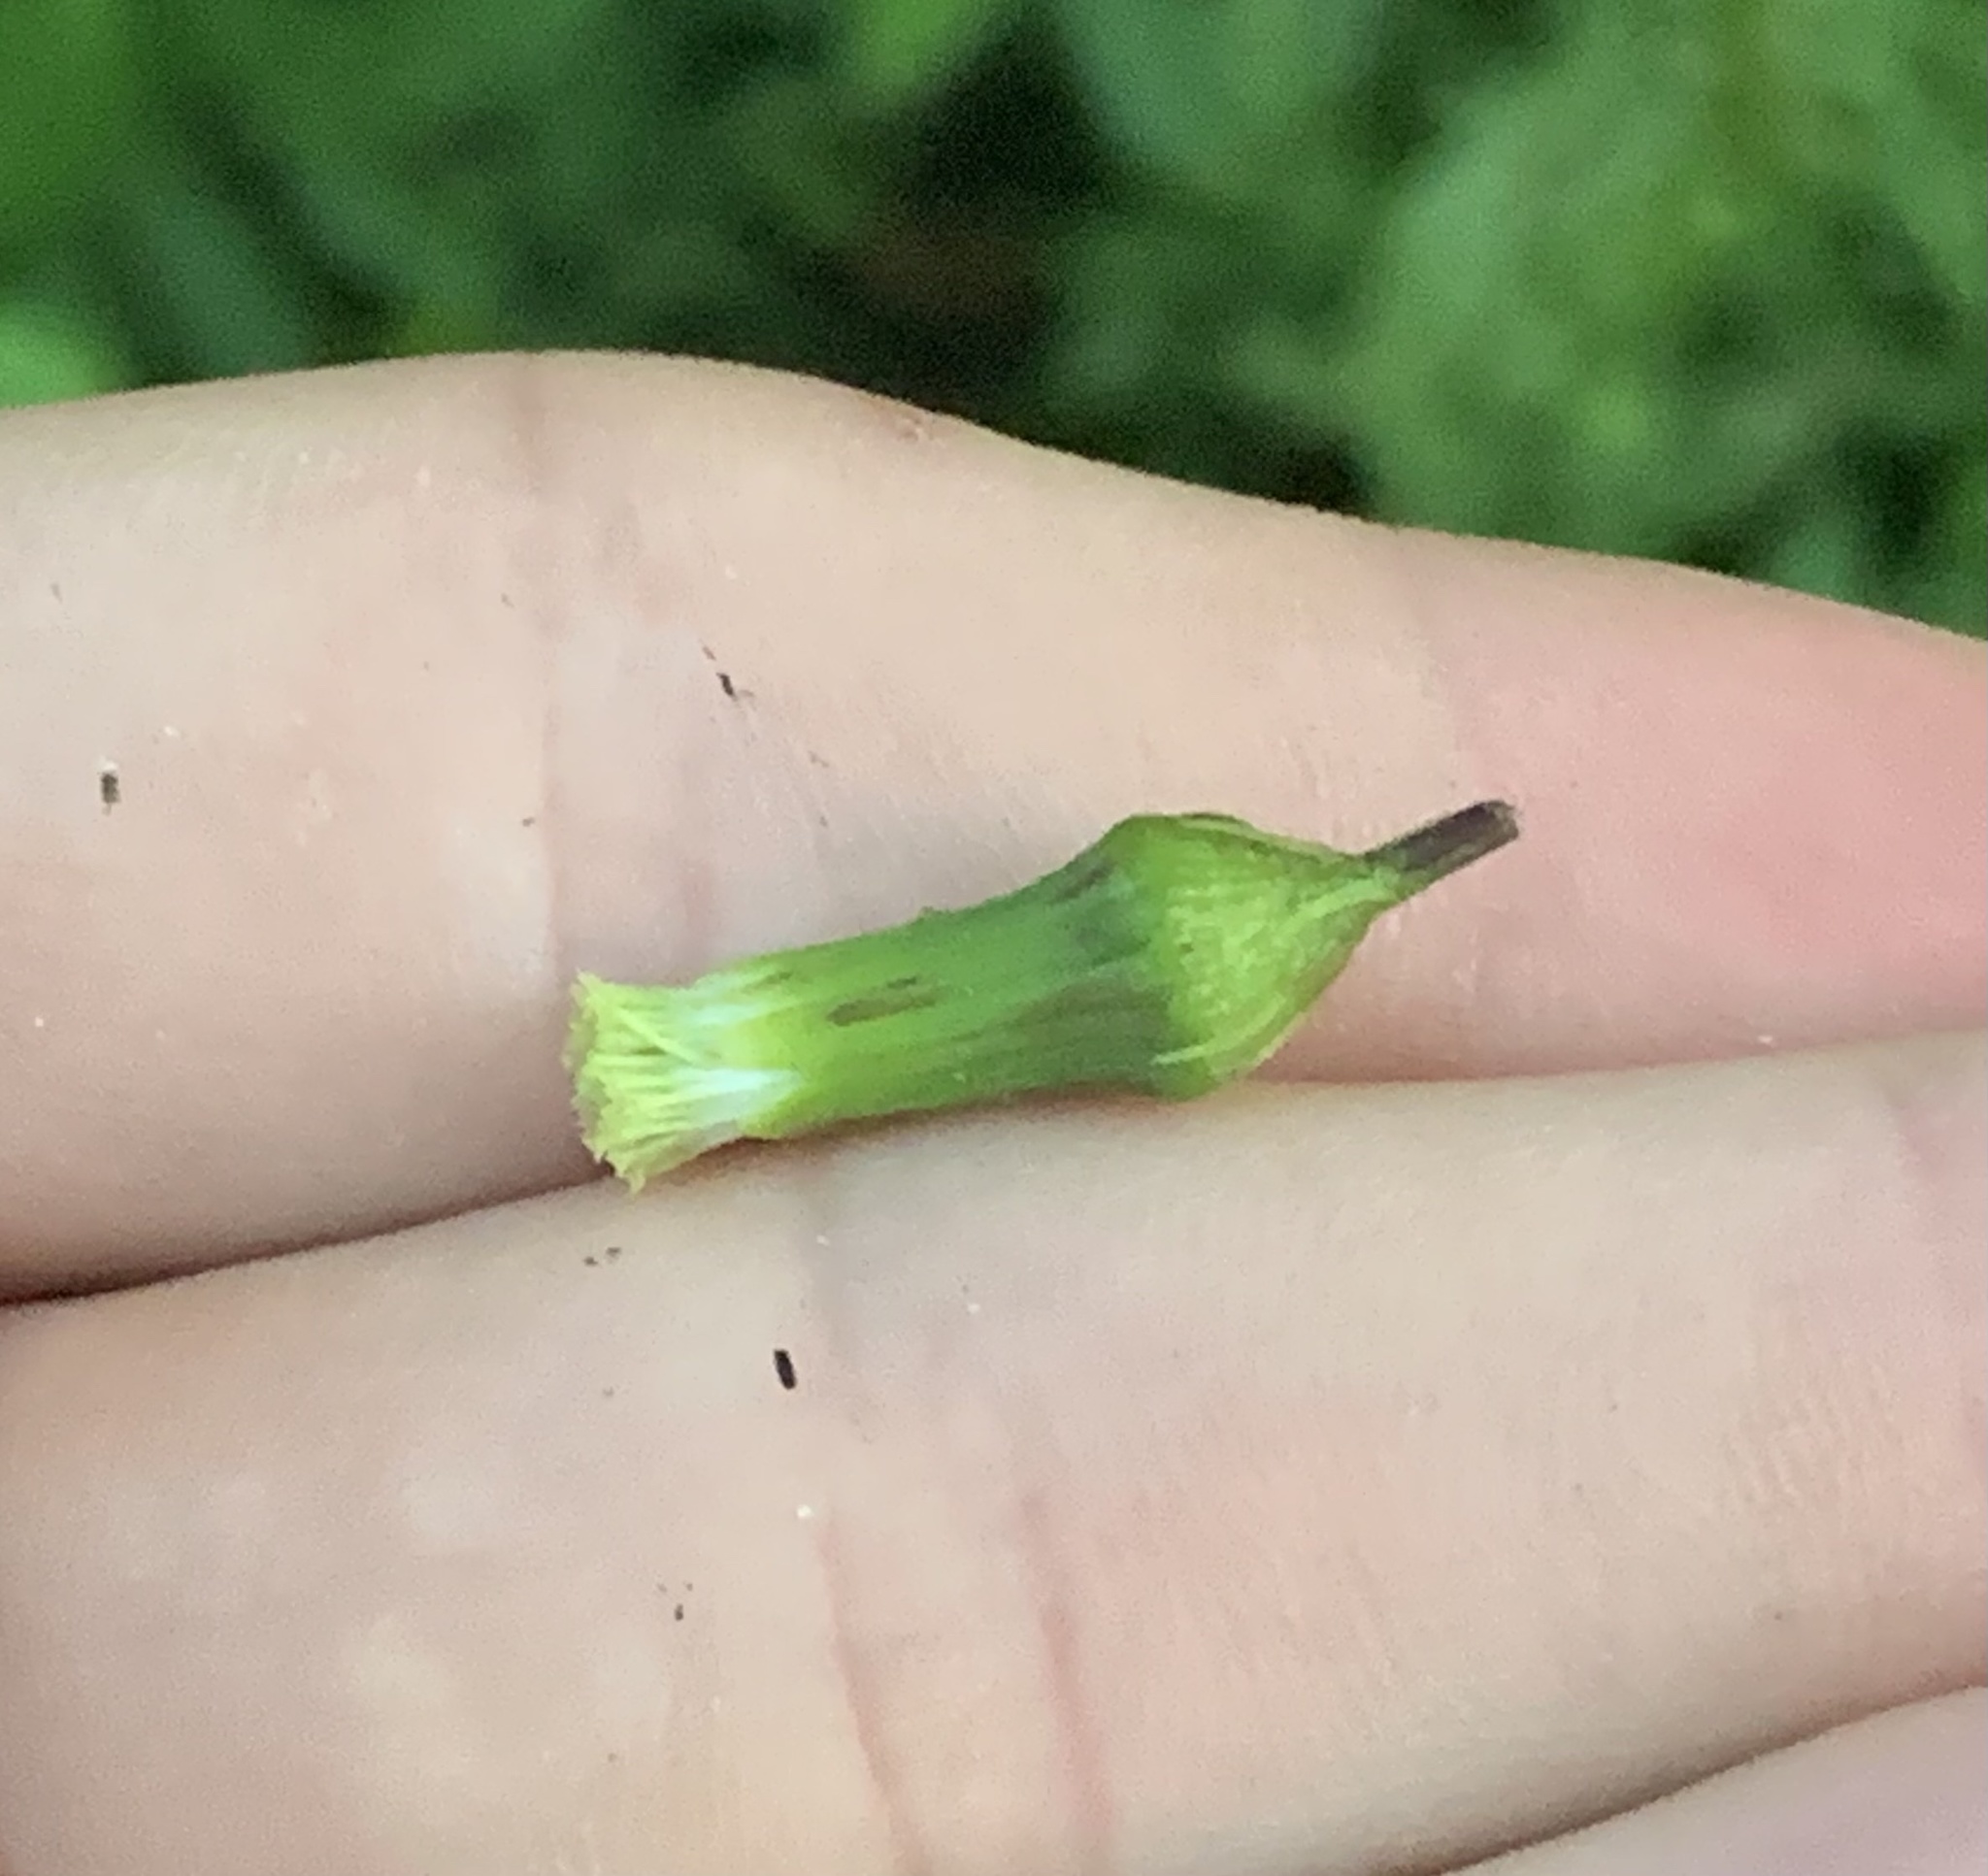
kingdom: Plantae
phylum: Tracheophyta
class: Magnoliopsida
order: Asterales
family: Asteraceae
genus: Erechtites
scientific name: Erechtites hieraciifolius
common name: American burnweed
